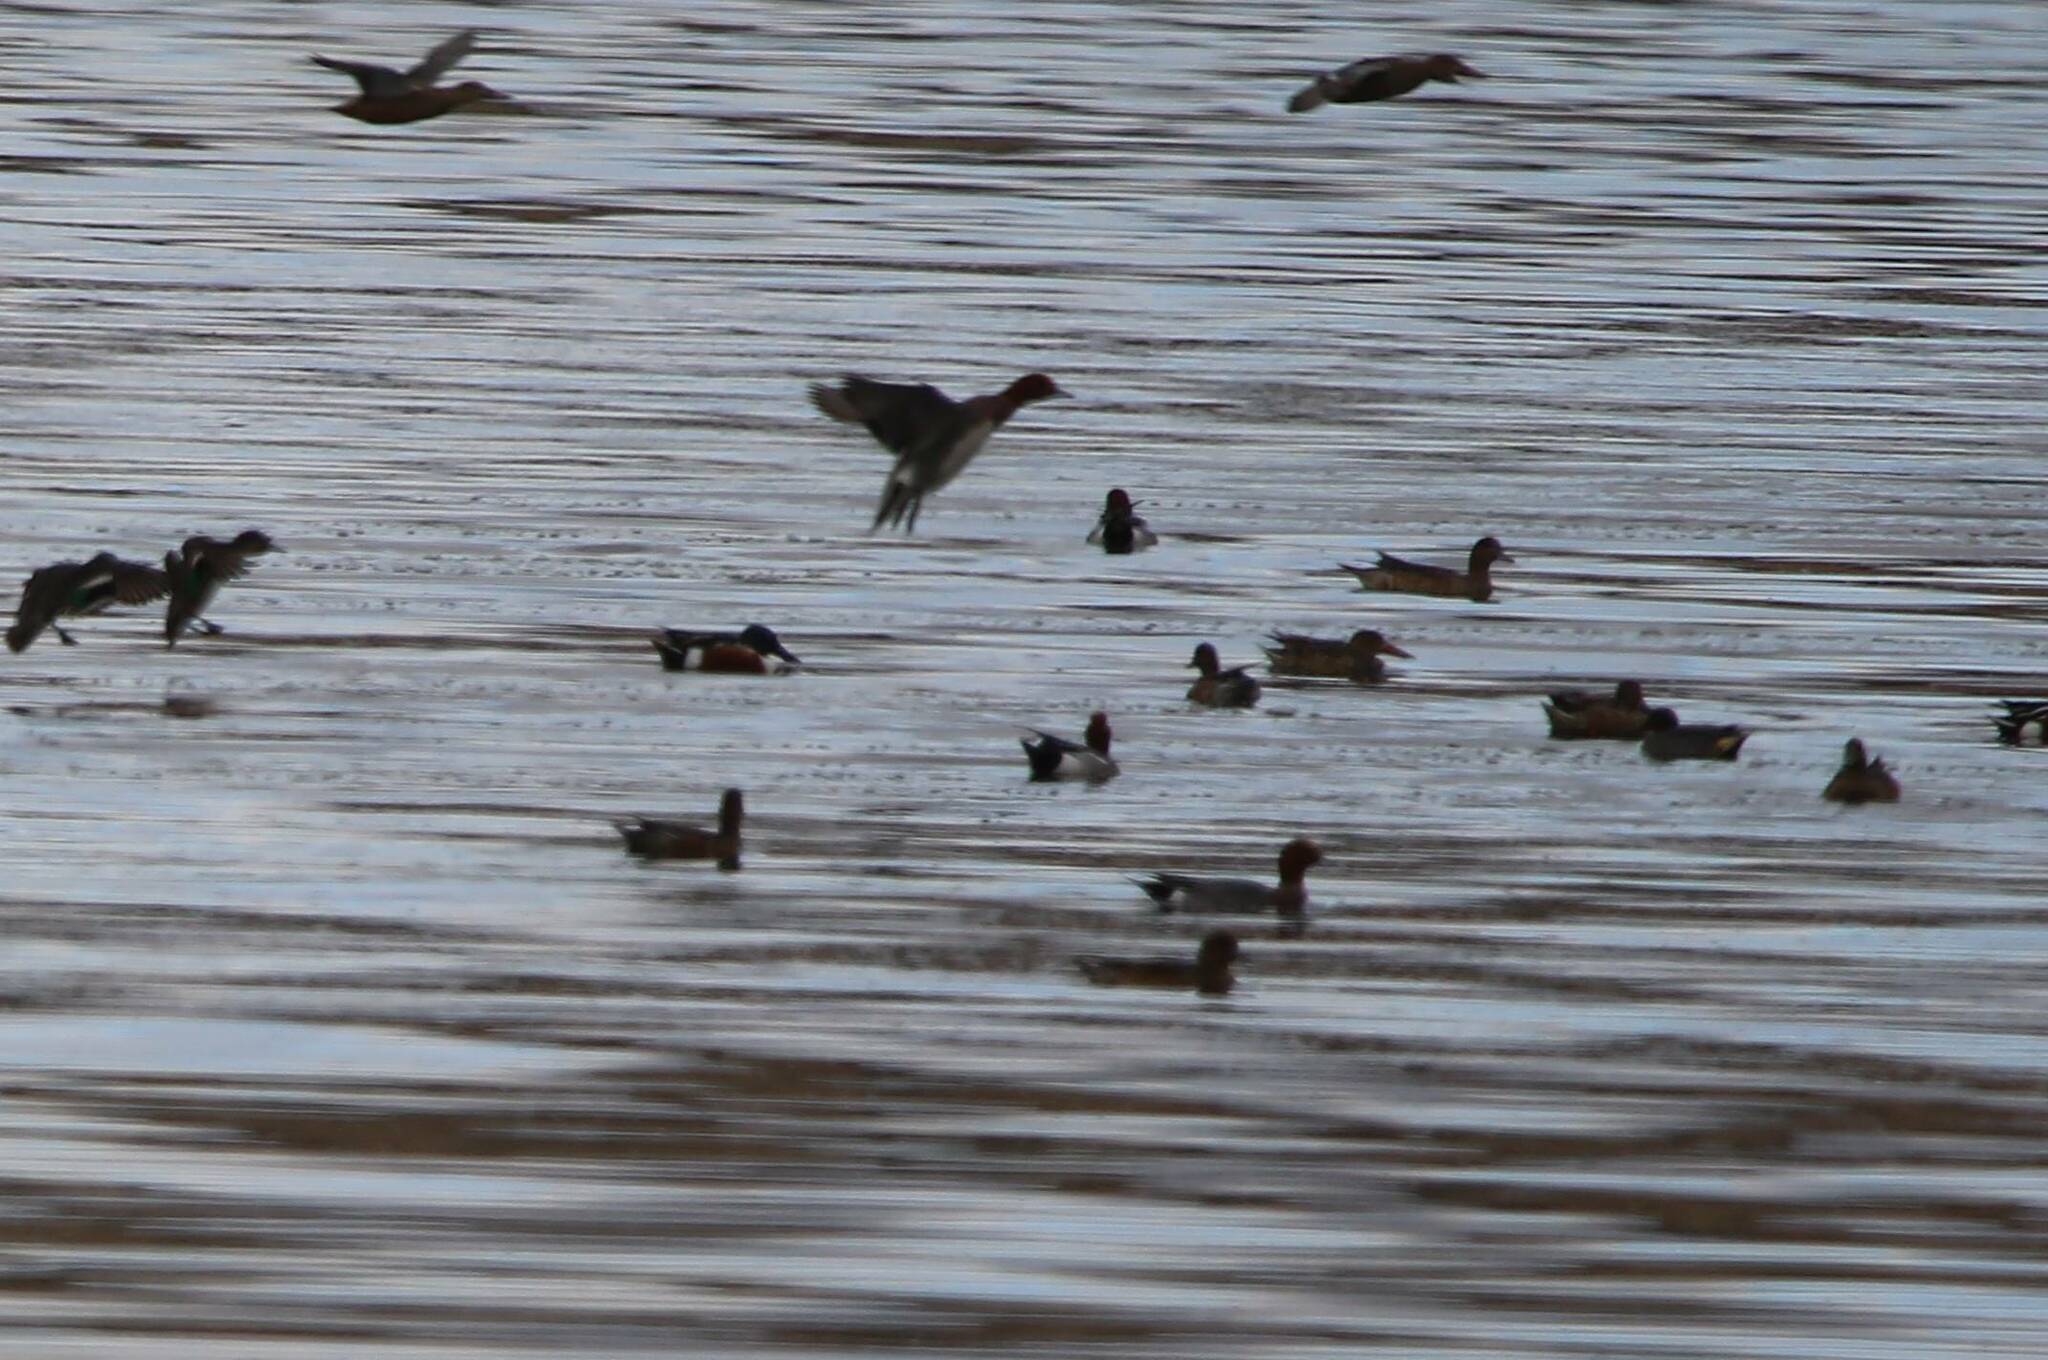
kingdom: Animalia
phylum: Chordata
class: Aves
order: Anseriformes
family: Anatidae
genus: Mareca
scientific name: Mareca penelope
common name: Eurasian wigeon
